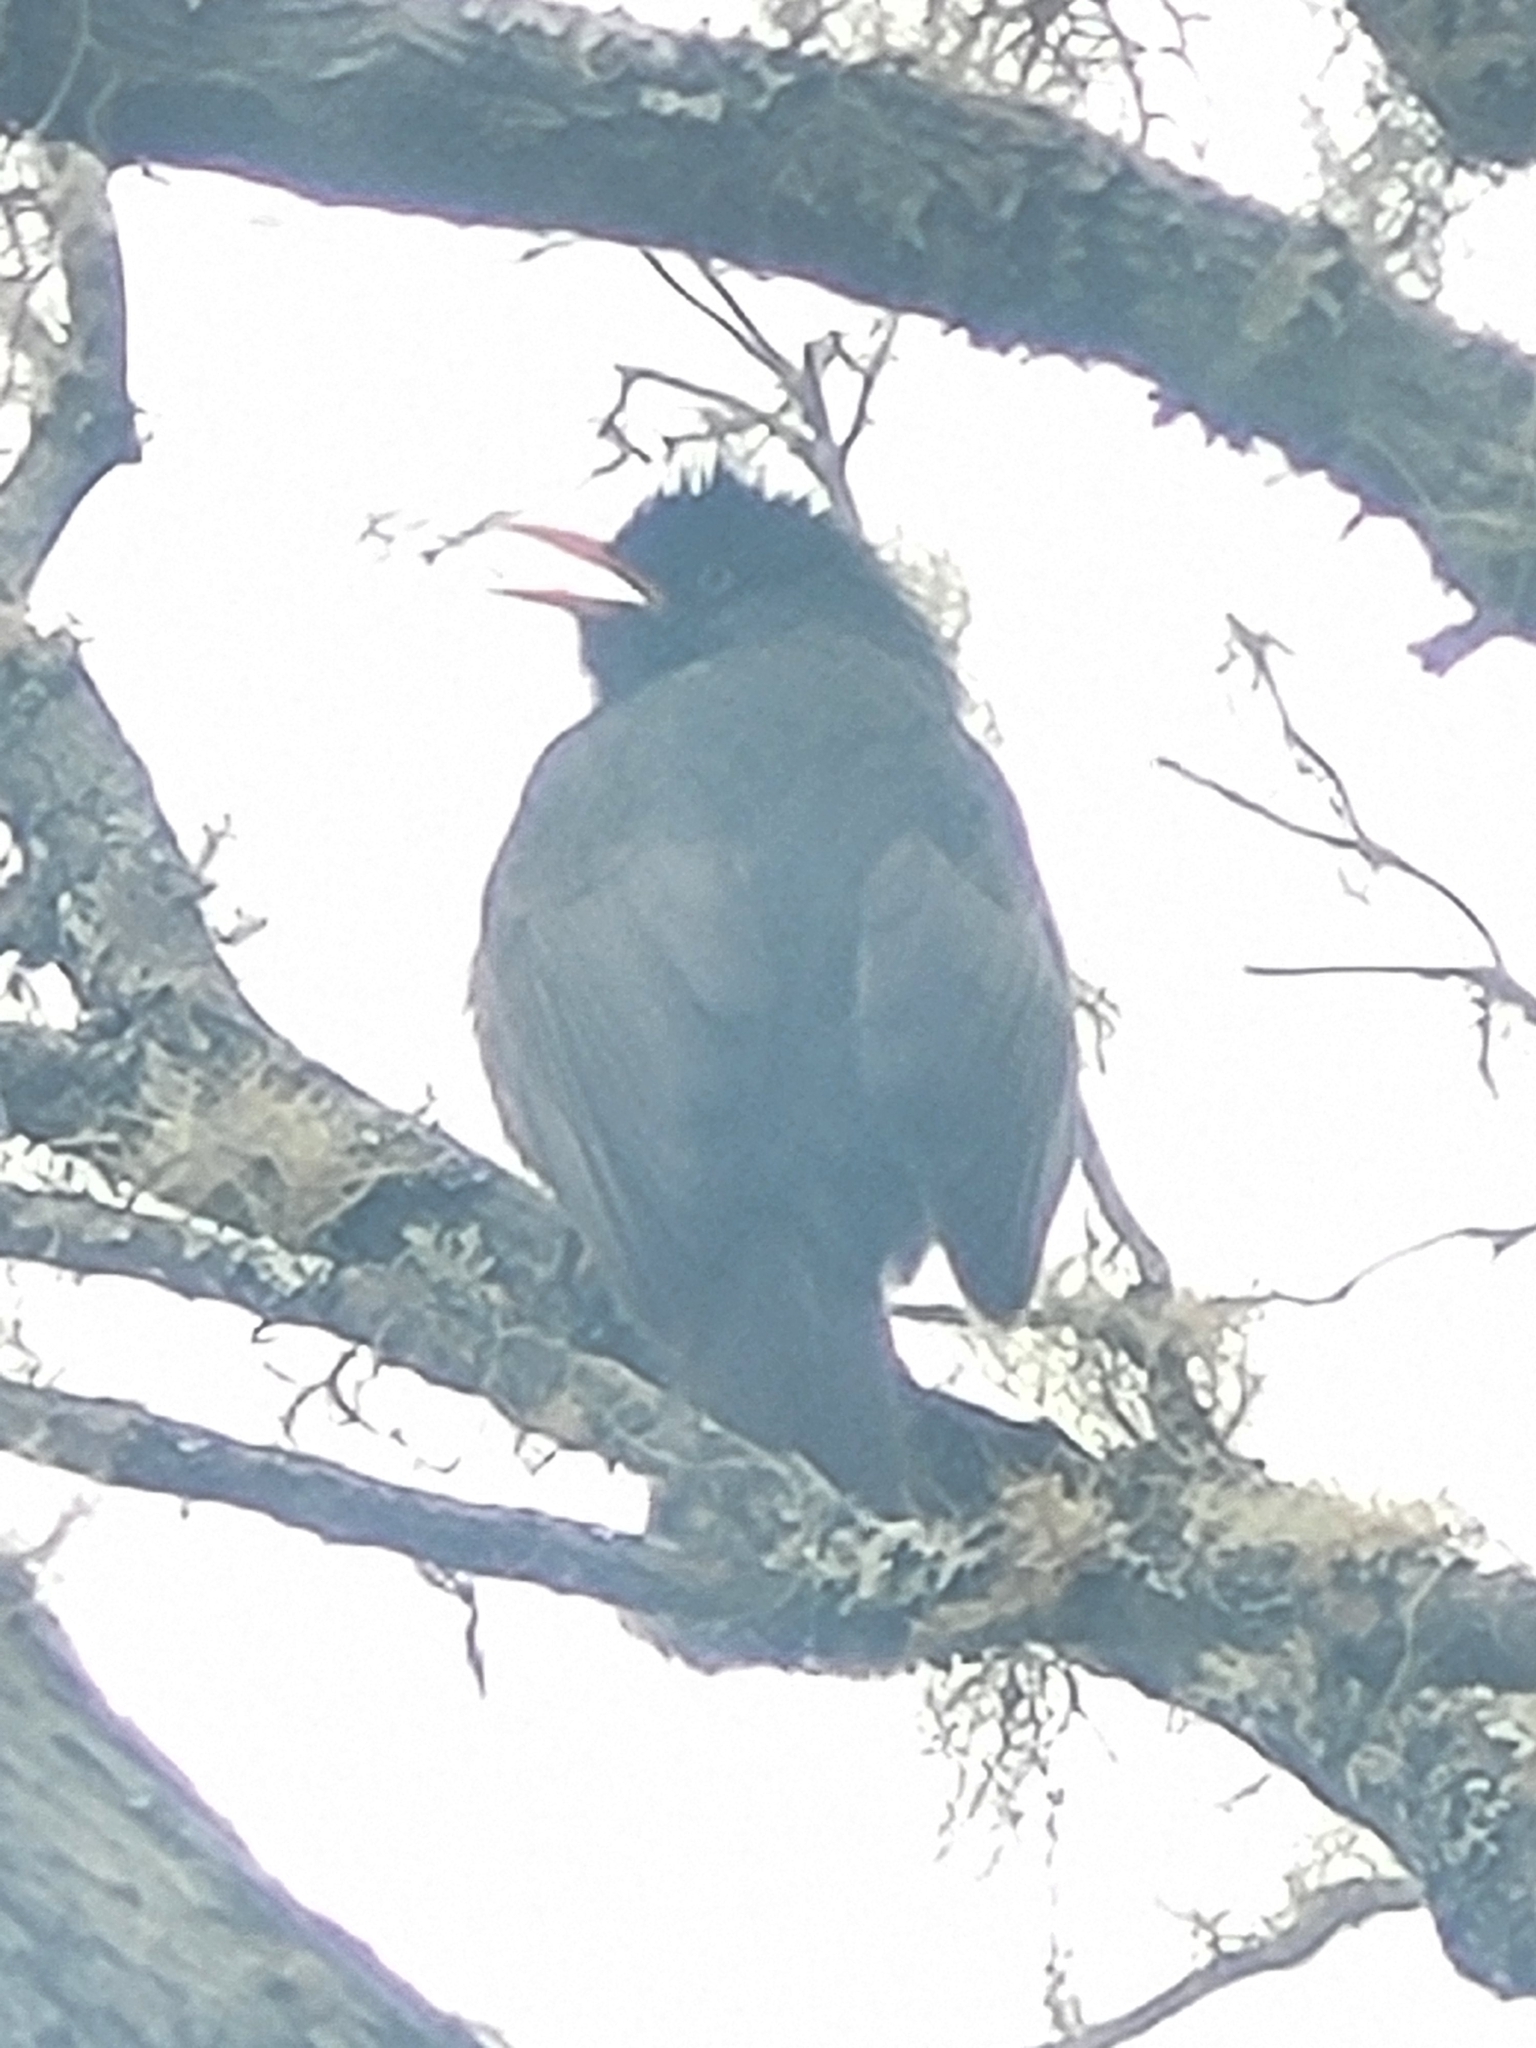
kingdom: Animalia
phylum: Chordata
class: Aves
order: Passeriformes
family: Pycnonotidae
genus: Hypsipetes
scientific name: Hypsipetes borbonicus
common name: Reunion bulbul
